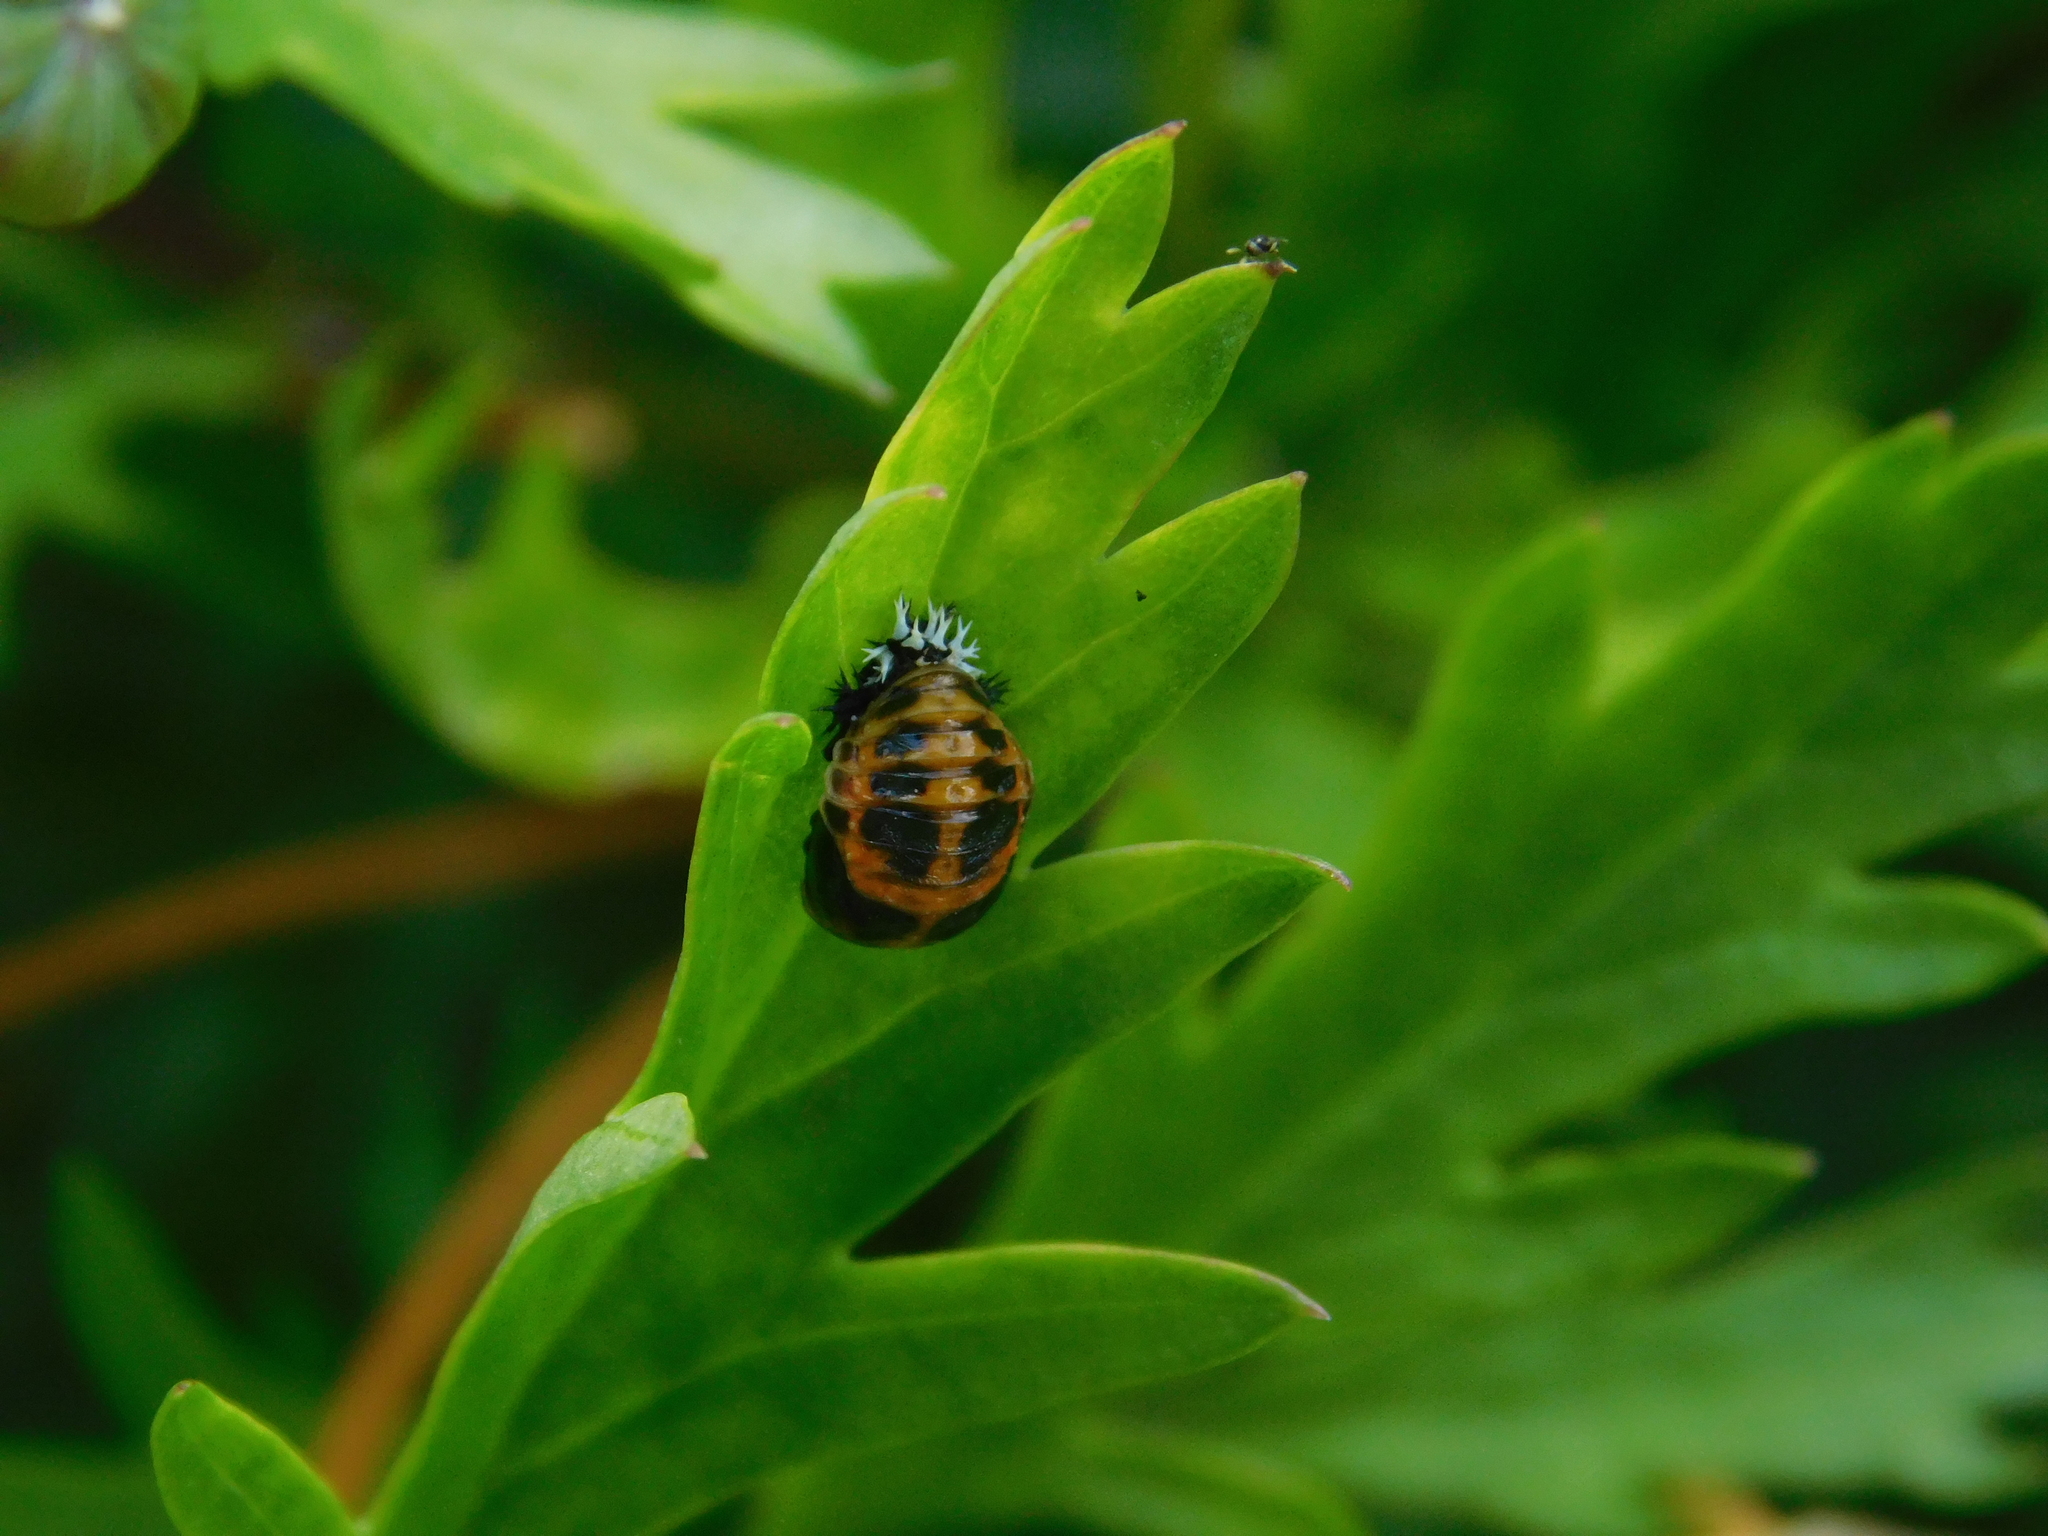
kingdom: Animalia
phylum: Arthropoda
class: Insecta
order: Coleoptera
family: Coccinellidae
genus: Harmonia
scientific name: Harmonia axyridis
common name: Harlequin ladybird
